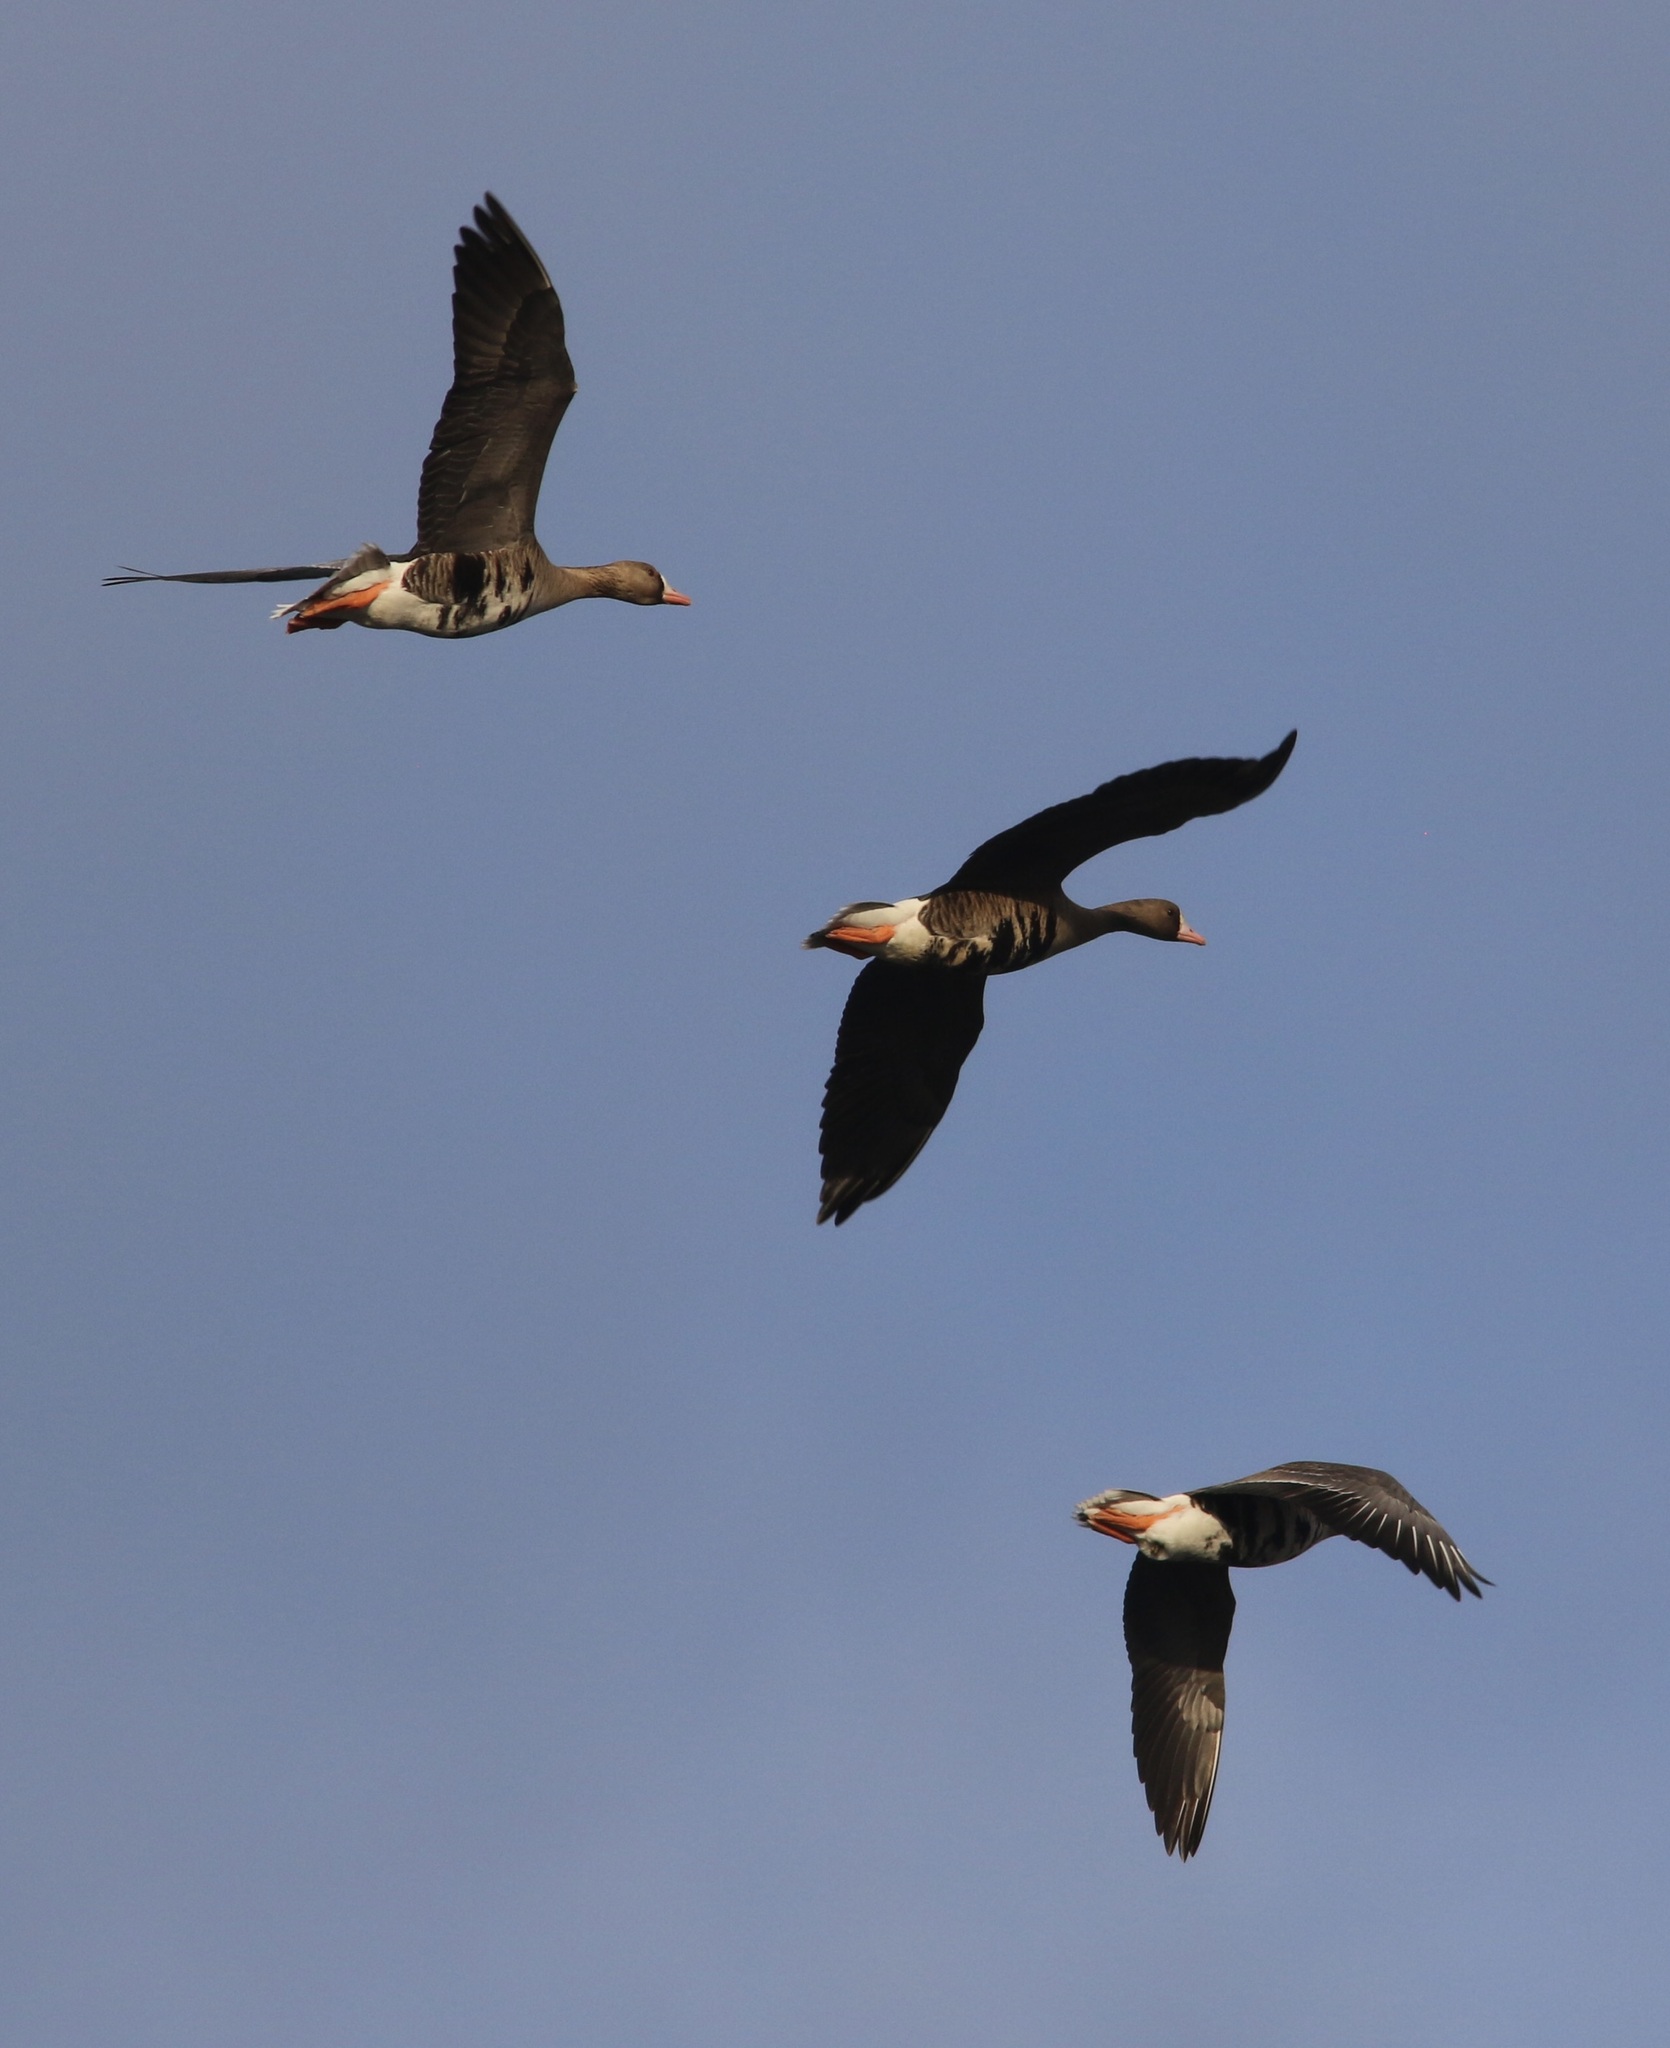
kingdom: Animalia
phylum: Chordata
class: Aves
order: Anseriformes
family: Anatidae
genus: Anser
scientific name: Anser albifrons
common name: Greater white-fronted goose
